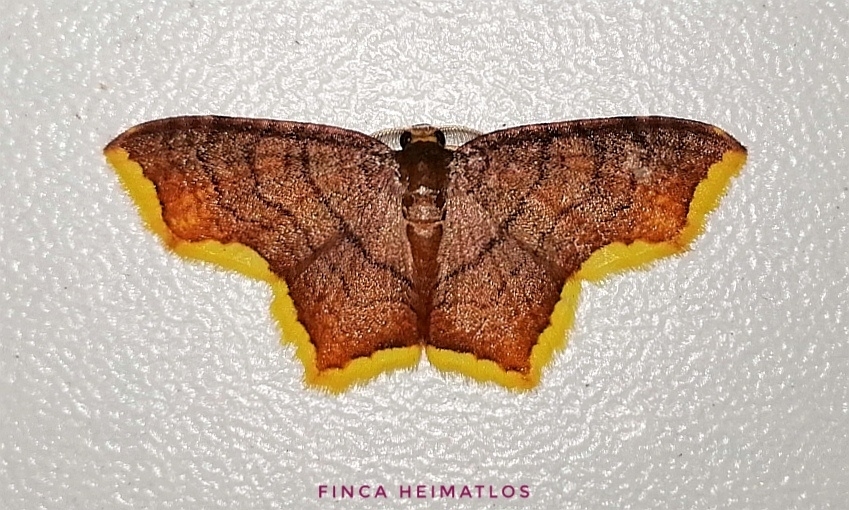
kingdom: Animalia
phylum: Arthropoda
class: Insecta
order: Lepidoptera
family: Geometridae
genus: Eois
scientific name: Eois flavotaeniata
